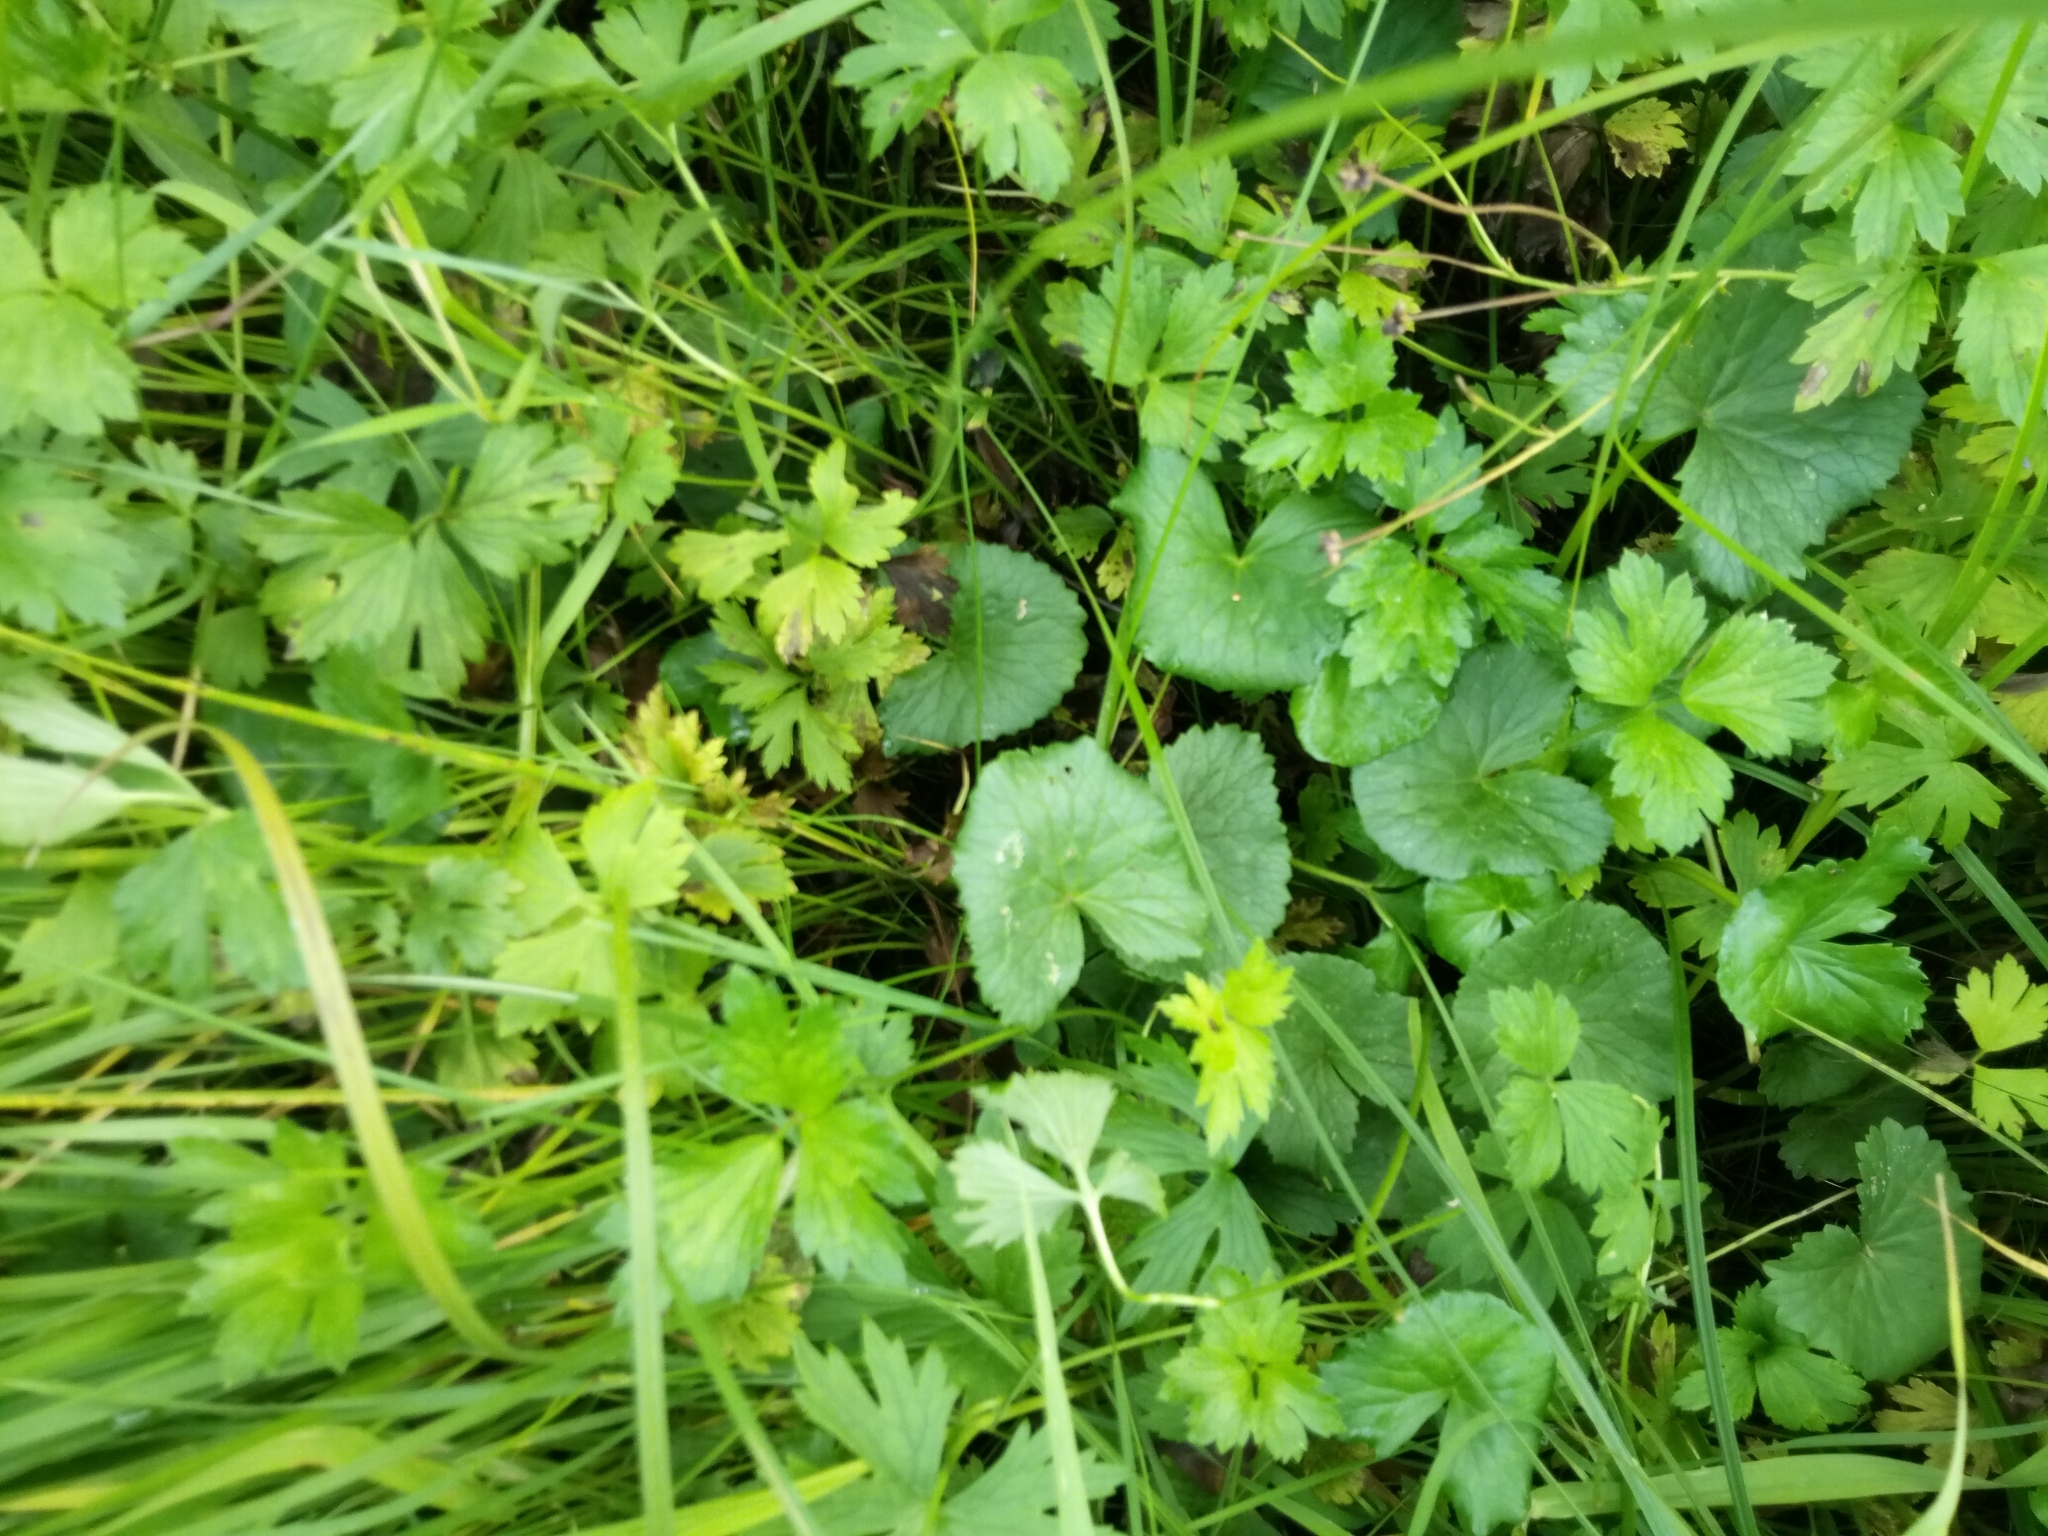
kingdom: Plantae
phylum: Tracheophyta
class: Magnoliopsida
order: Ranunculales
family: Ranunculaceae
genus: Caltha
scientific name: Caltha palustris
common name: Marsh marigold
